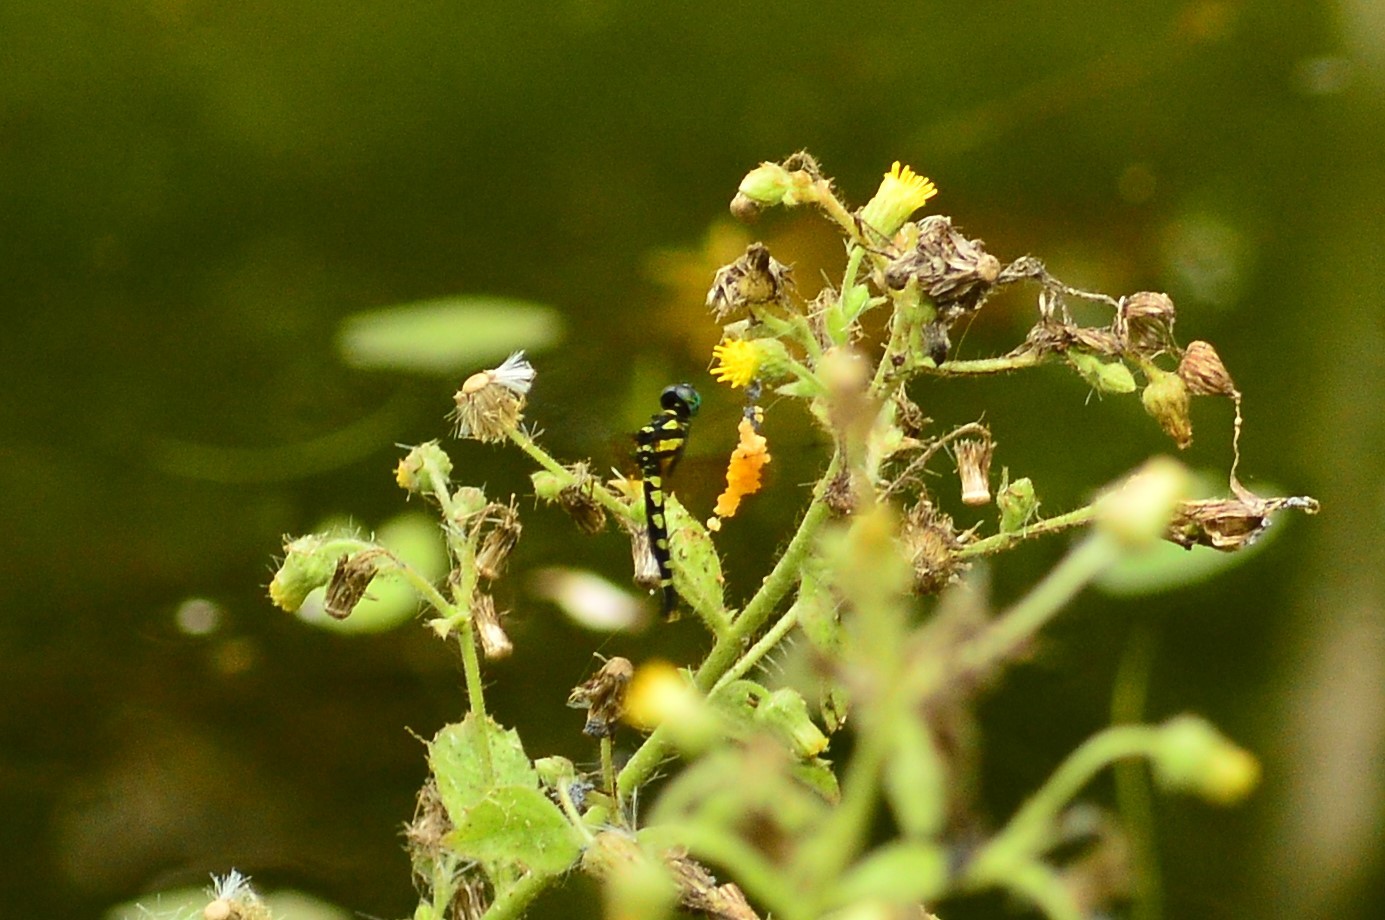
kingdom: Animalia
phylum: Arthropoda
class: Insecta
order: Odonata
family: Libellulidae
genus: Tetrathemis
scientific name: Tetrathemis platyptera
